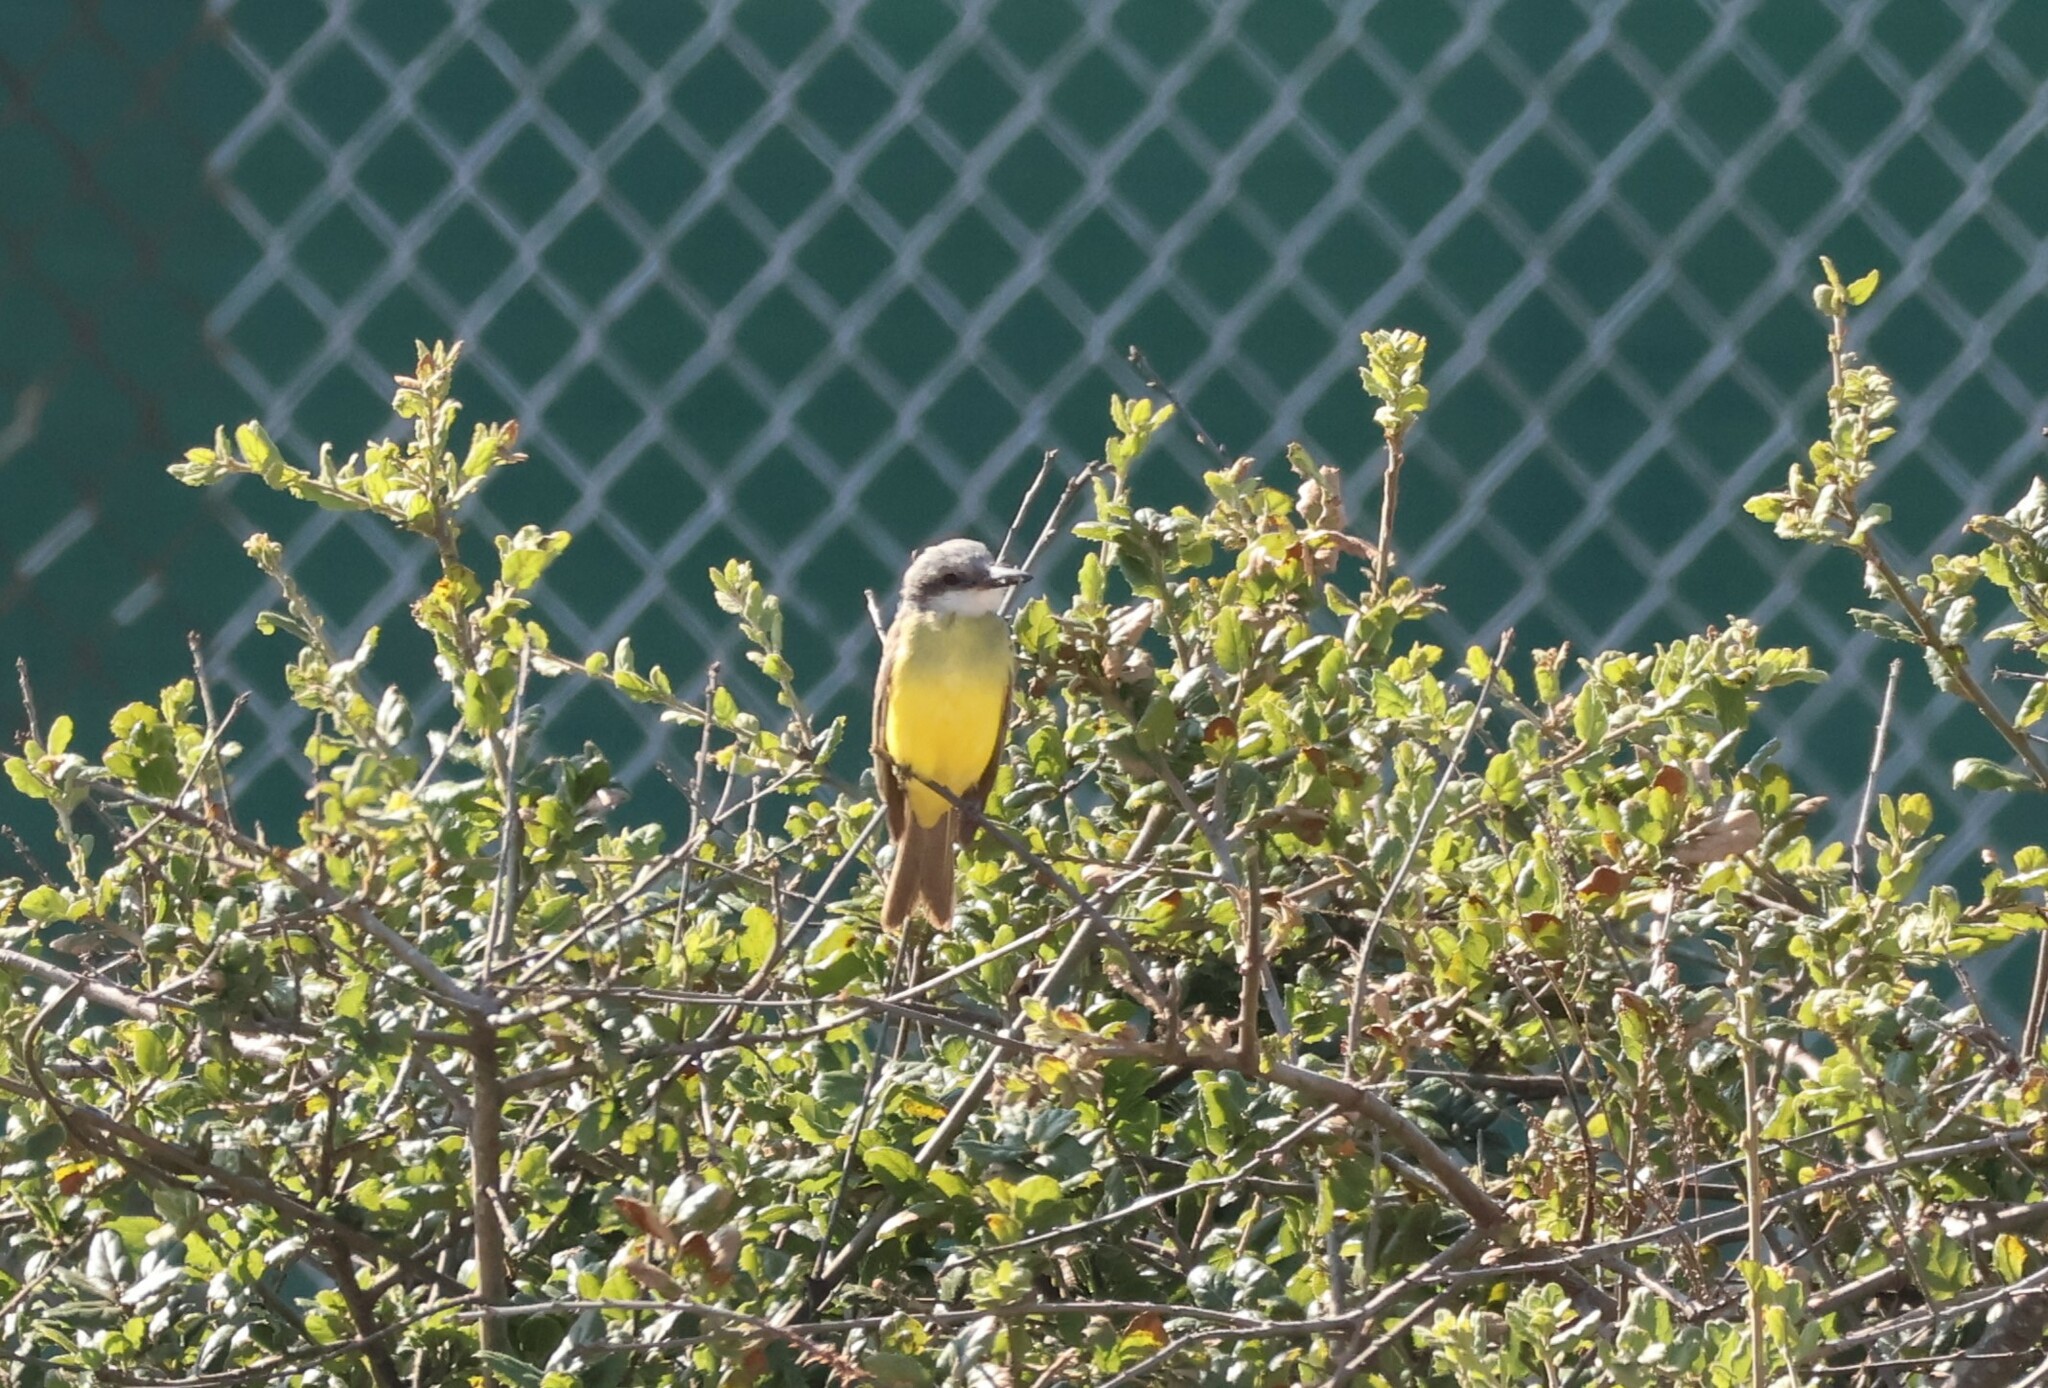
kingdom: Animalia
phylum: Chordata
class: Aves
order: Passeriformes
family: Tyrannidae
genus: Tyrannus
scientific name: Tyrannus melancholicus
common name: Tropical kingbird
